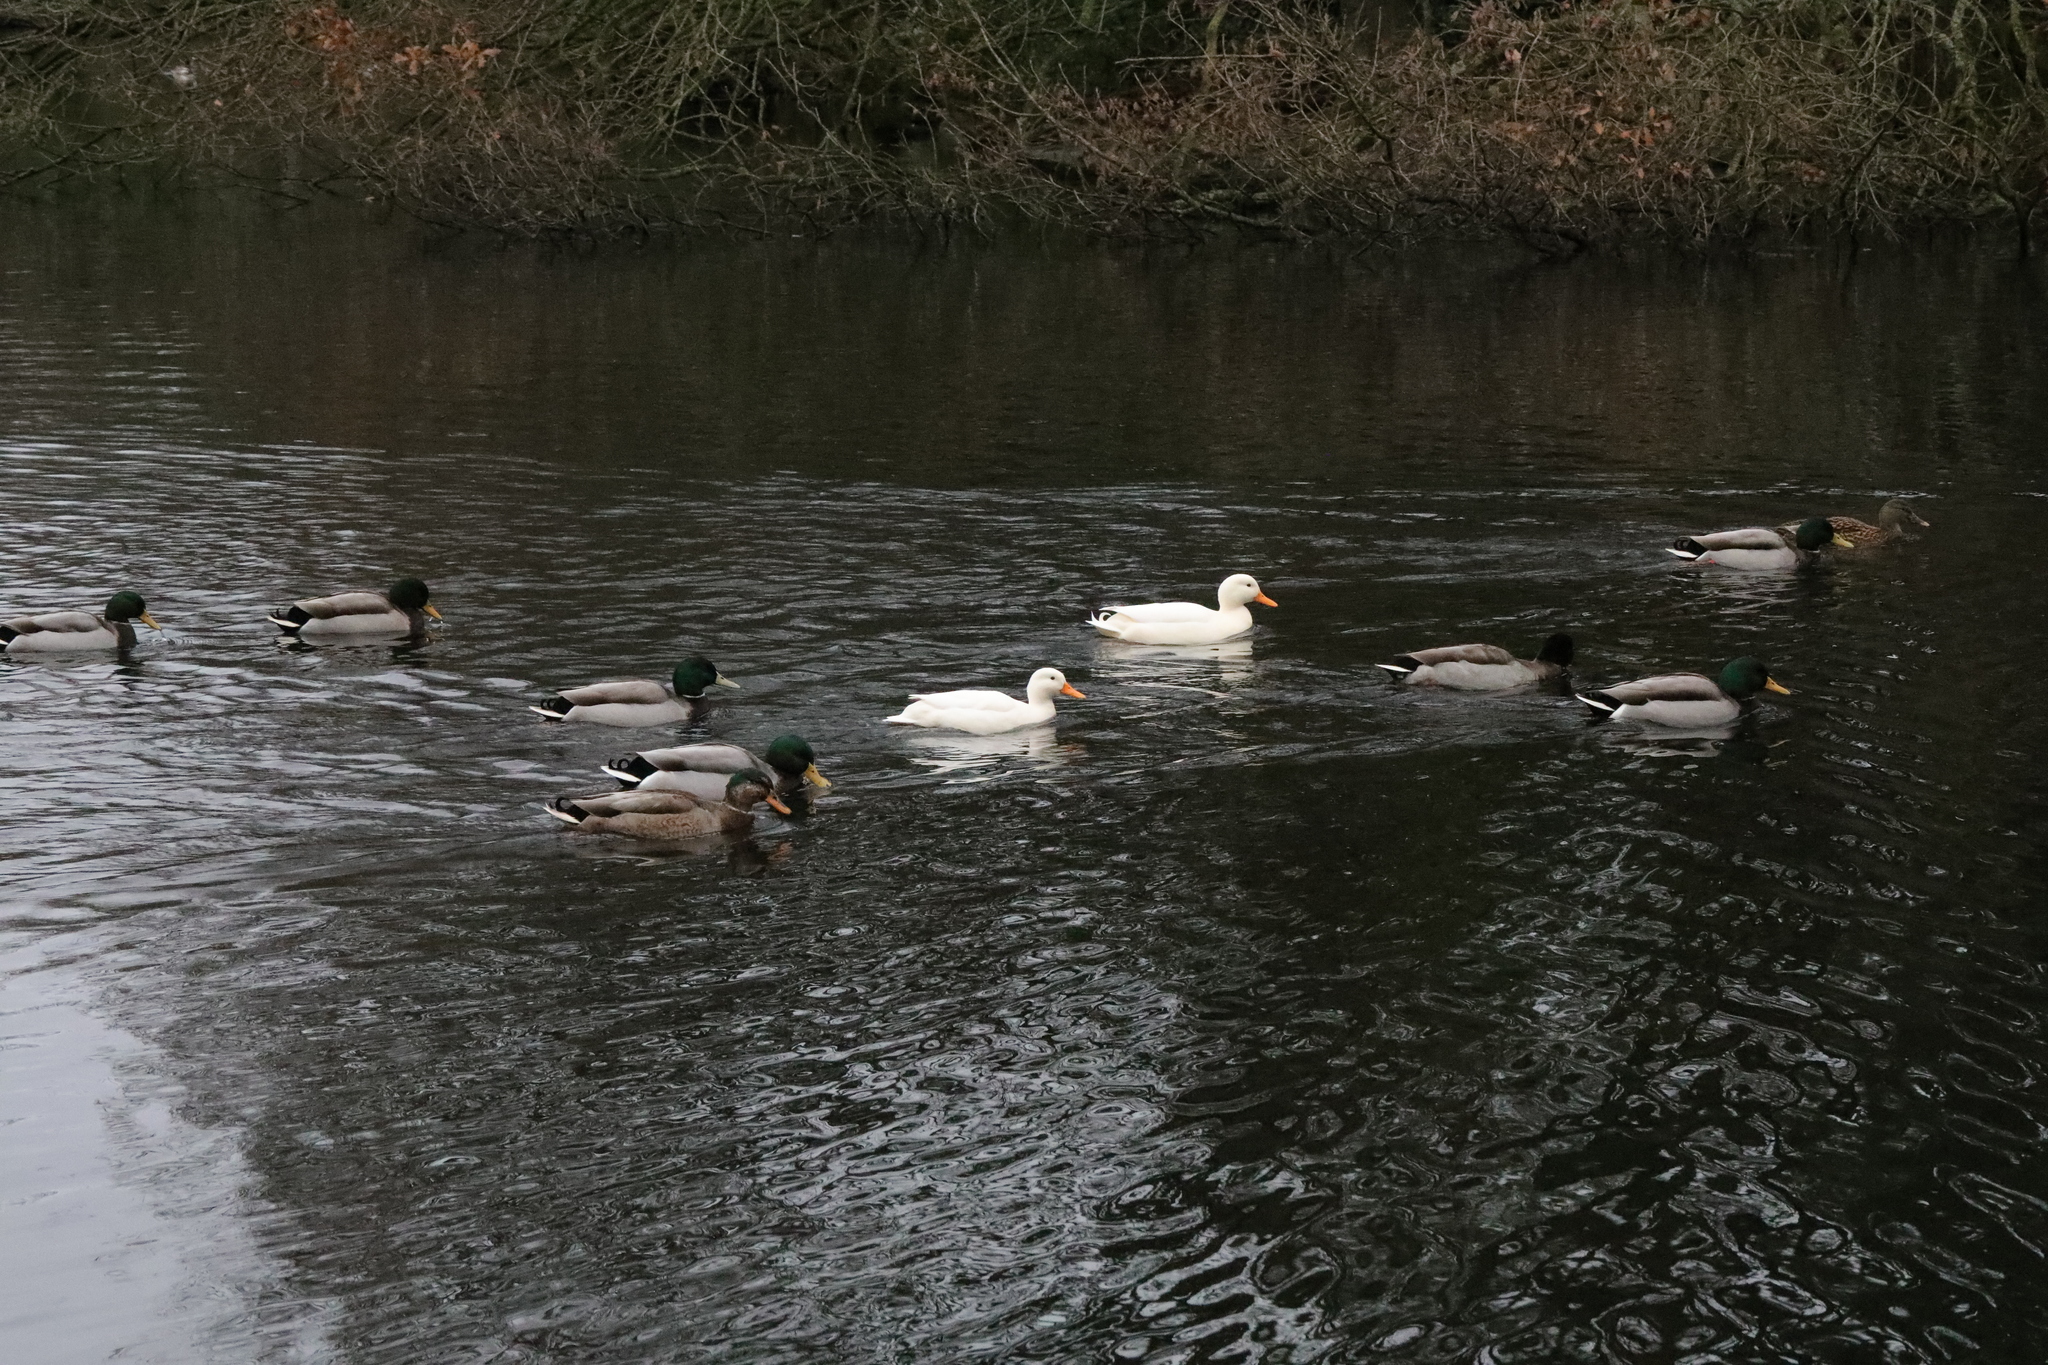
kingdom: Animalia
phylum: Chordata
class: Aves
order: Anseriformes
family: Anatidae
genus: Anas
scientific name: Anas platyrhynchos
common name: Mallard
